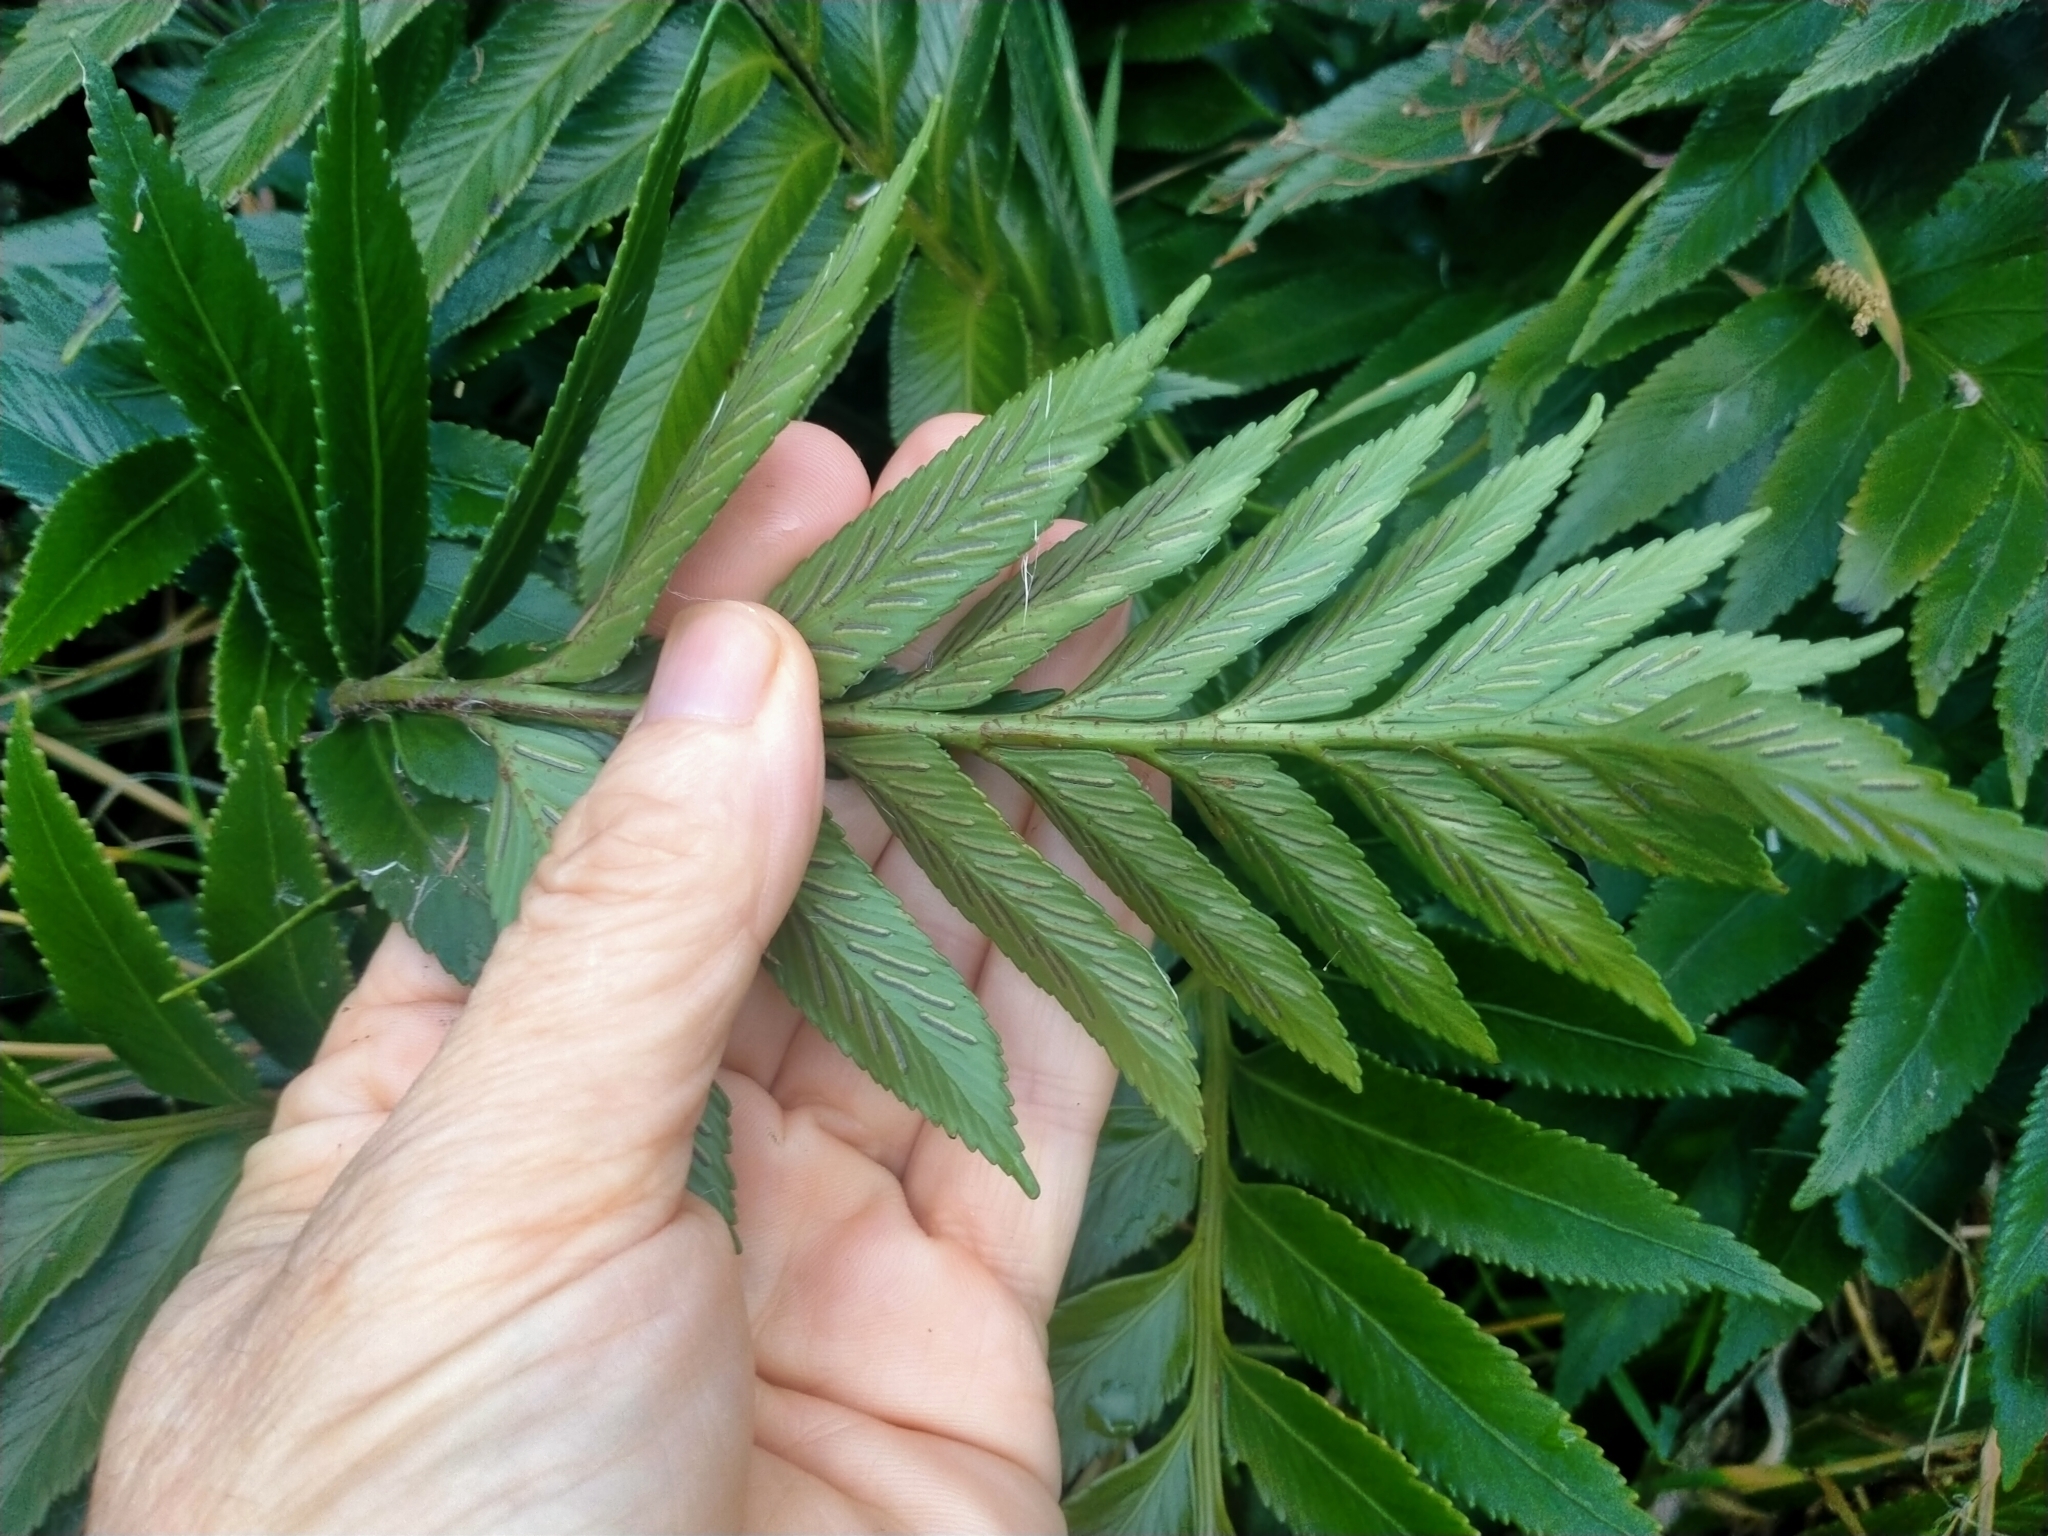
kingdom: Plantae
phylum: Tracheophyta
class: Polypodiopsida
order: Polypodiales
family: Aspleniaceae
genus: Asplenium
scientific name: Asplenium obtusatum
